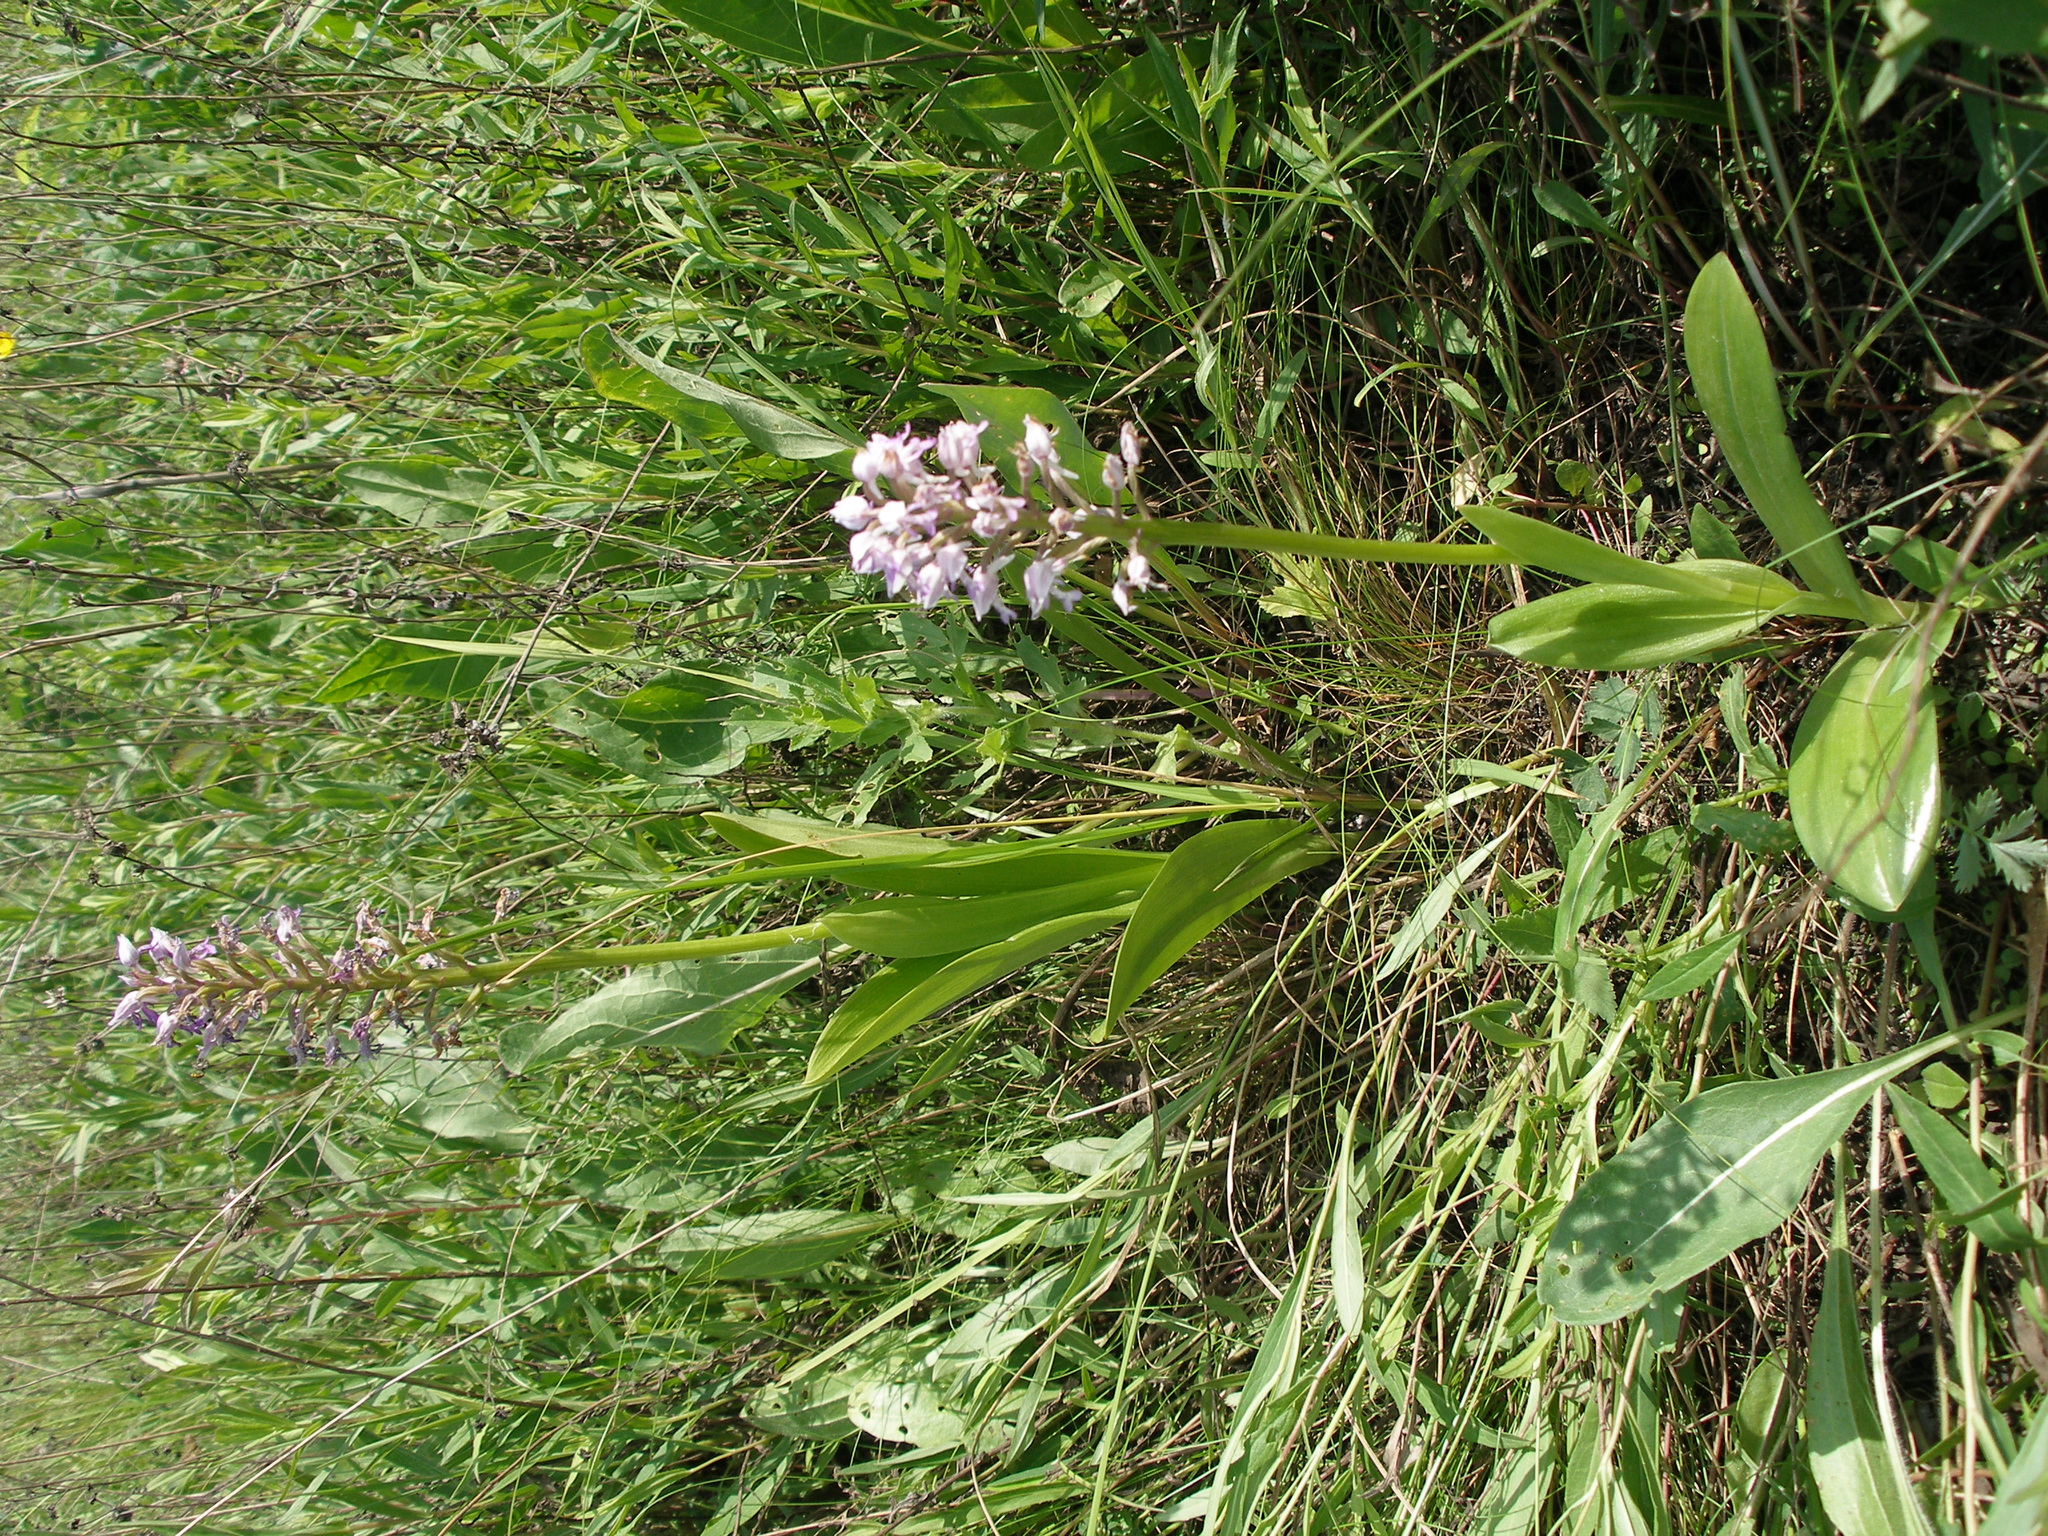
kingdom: Plantae
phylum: Tracheophyta
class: Liliopsida
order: Asparagales
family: Orchidaceae
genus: Orchis
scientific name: Orchis militaris
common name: Military orchid
